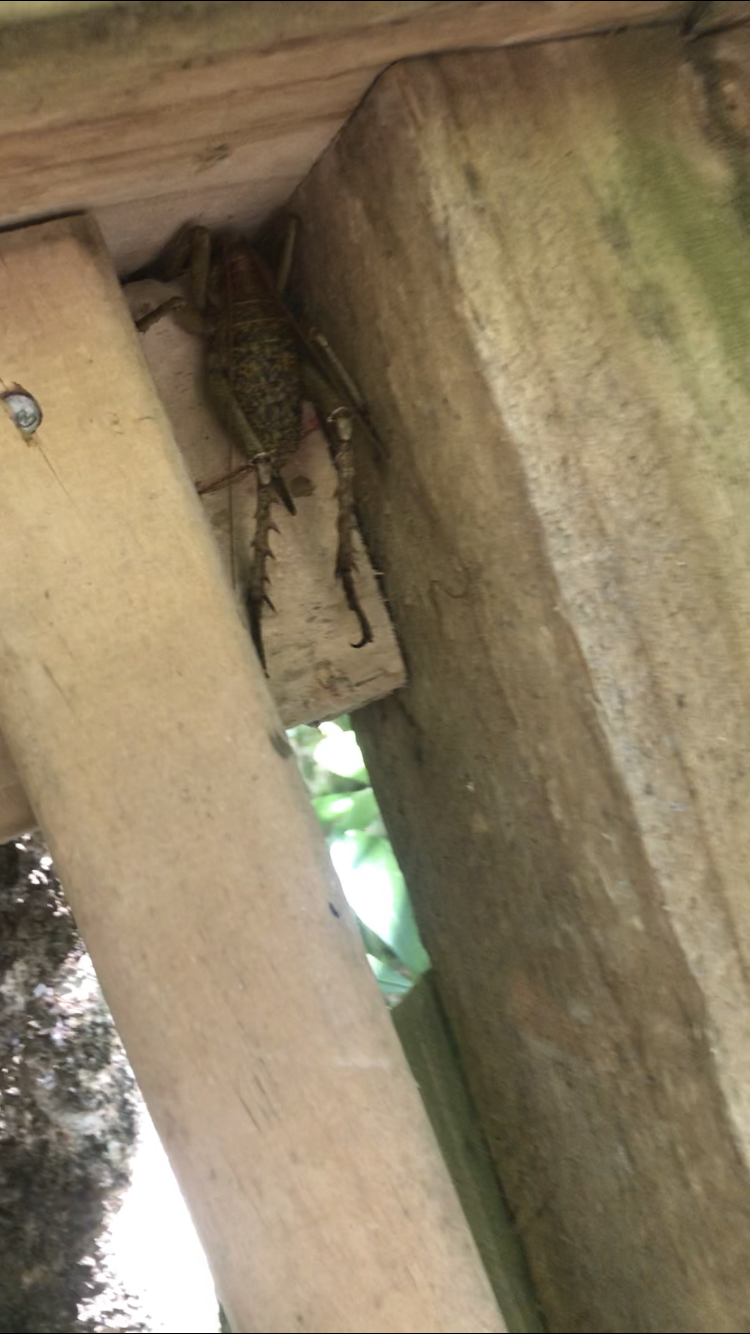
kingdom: Animalia
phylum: Arthropoda
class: Insecta
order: Orthoptera
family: Anostostomatidae
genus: Deinacrida
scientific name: Deinacrida heteracantha
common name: Wetapunga
